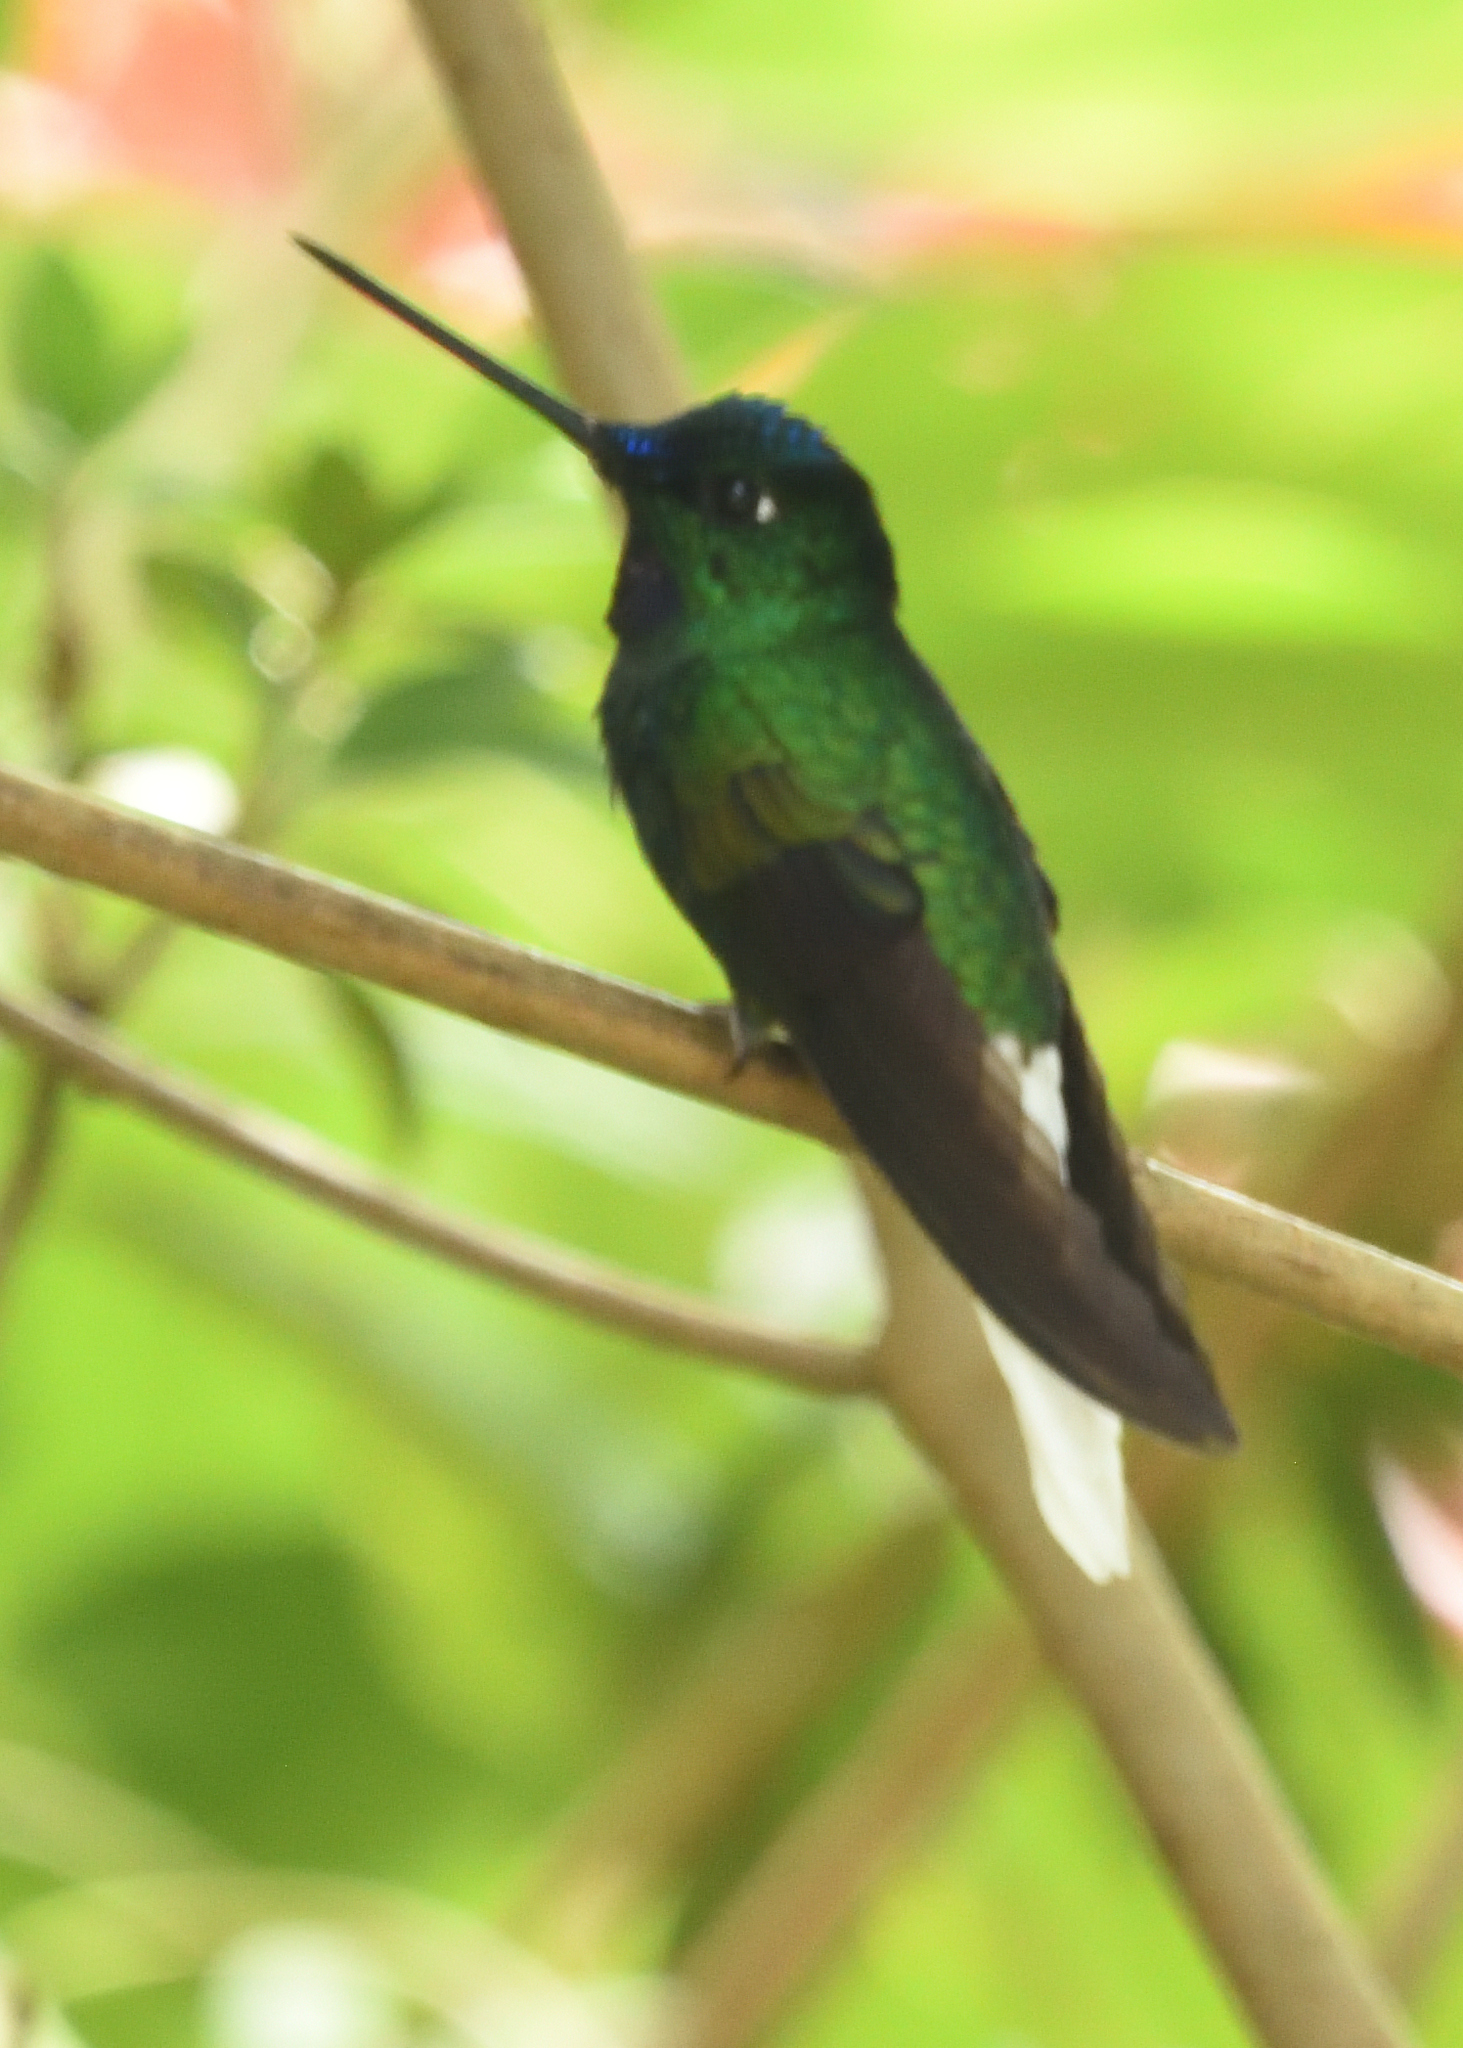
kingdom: Animalia
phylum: Chordata
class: Aves
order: Apodiformes
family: Trochilidae
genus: Coeligena
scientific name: Coeligena phalerata
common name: White-tailed starfrontlet
